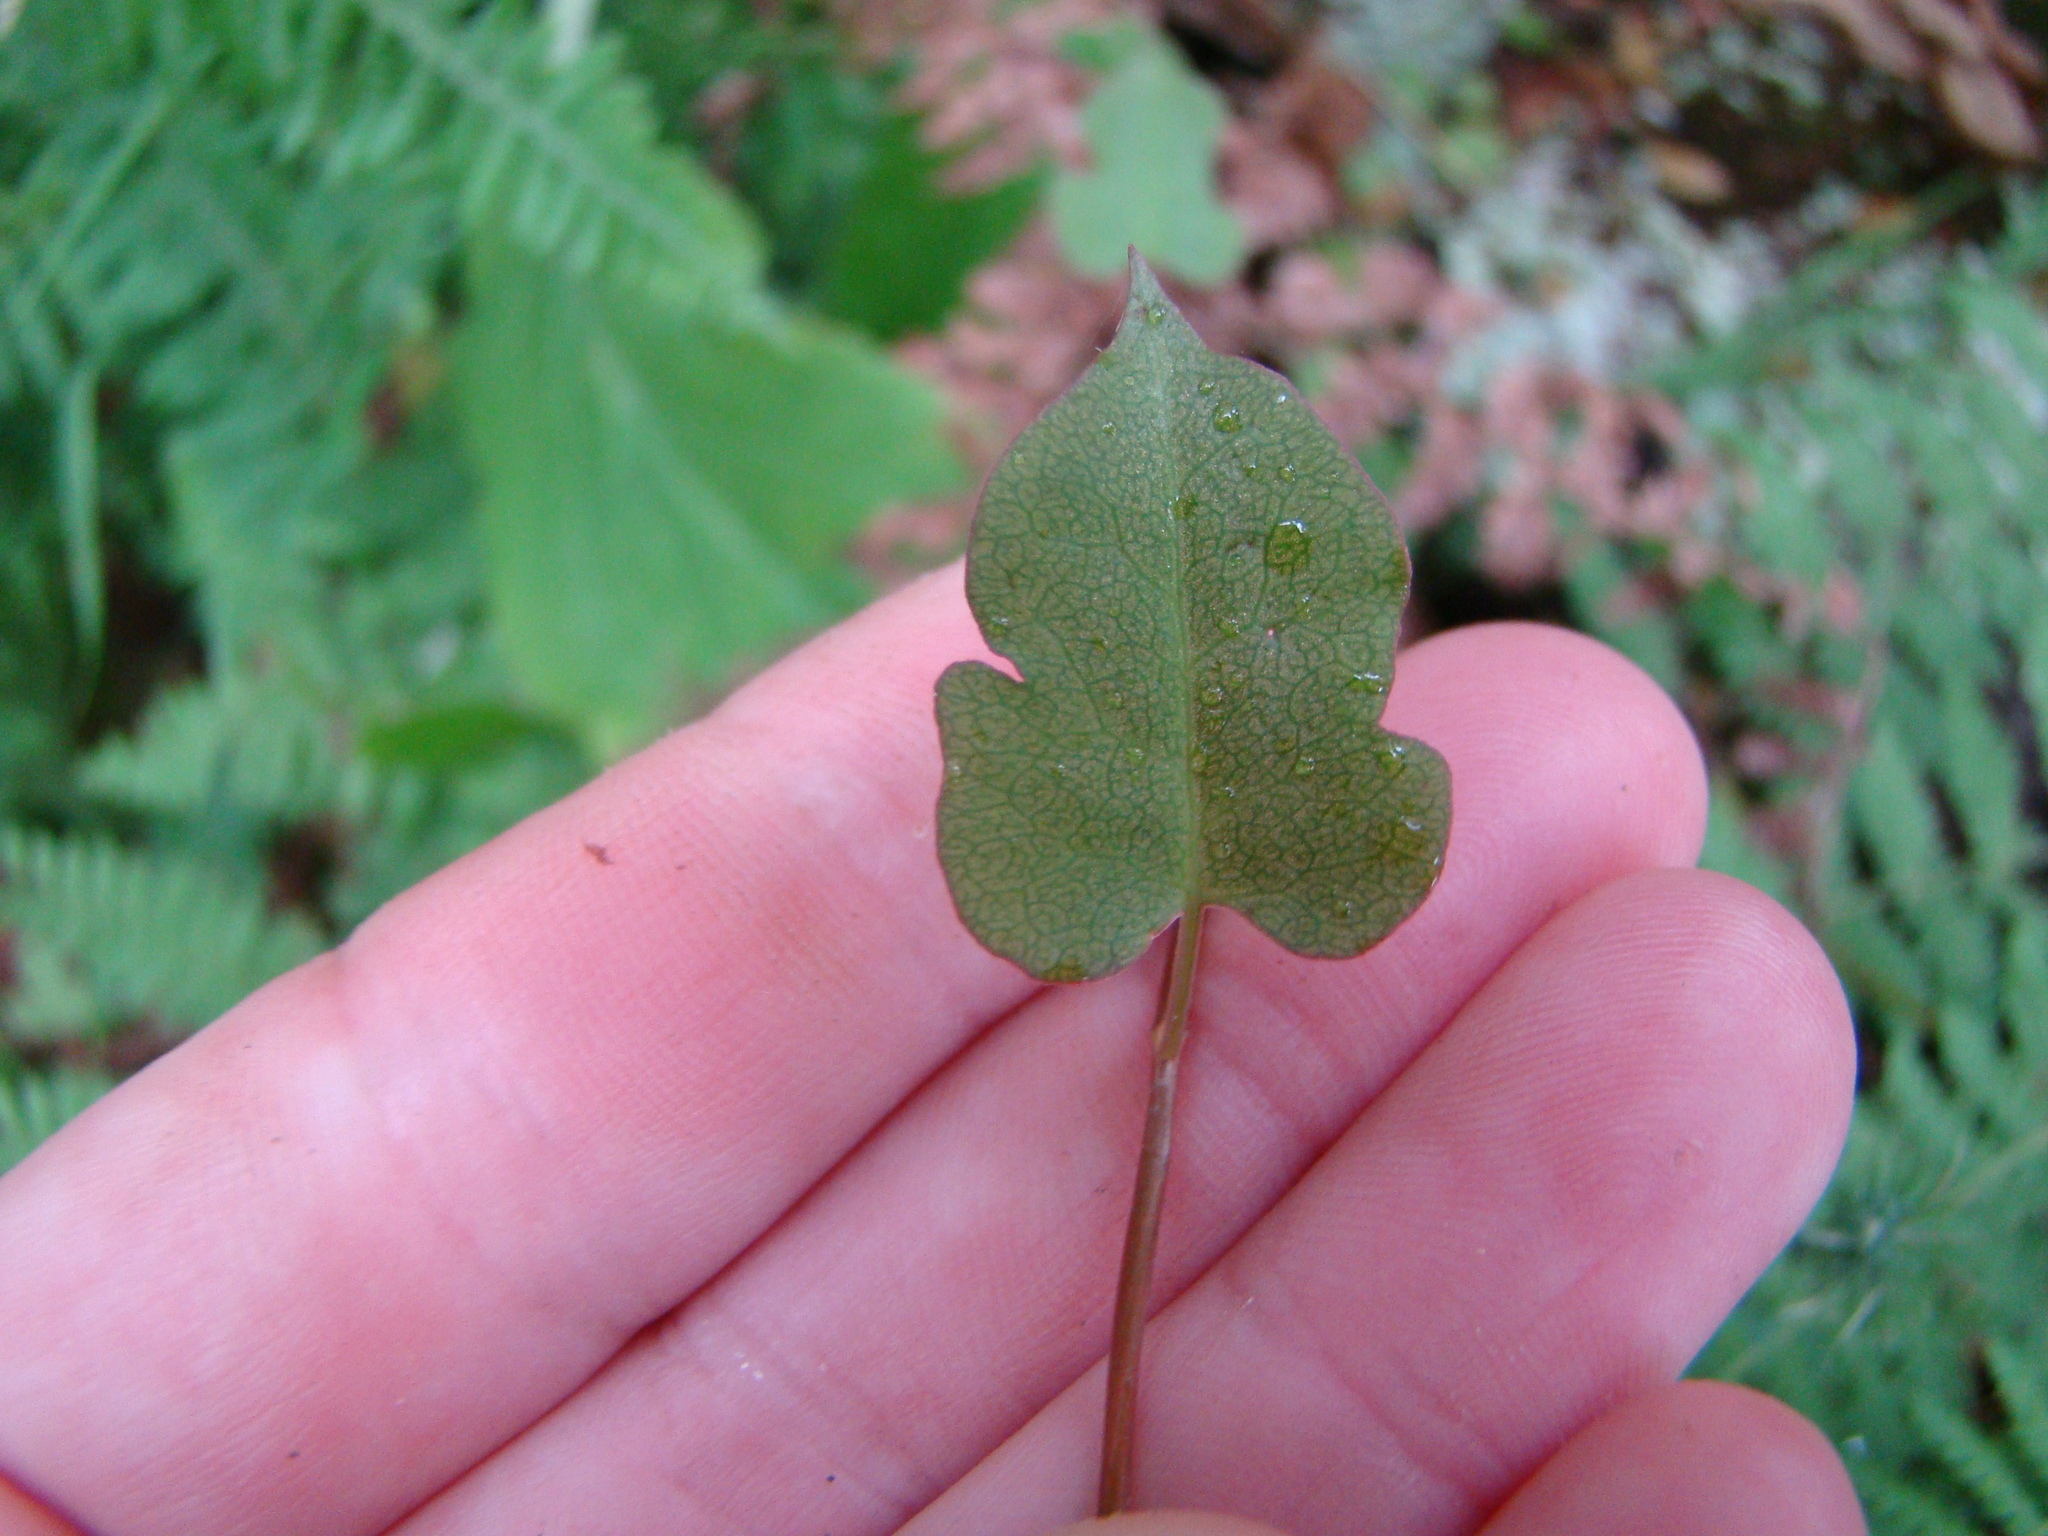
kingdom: Plantae
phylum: Tracheophyta
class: Magnoliopsida
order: Caryophyllales
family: Polygonaceae
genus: Muehlenbeckia
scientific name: Muehlenbeckia australis
